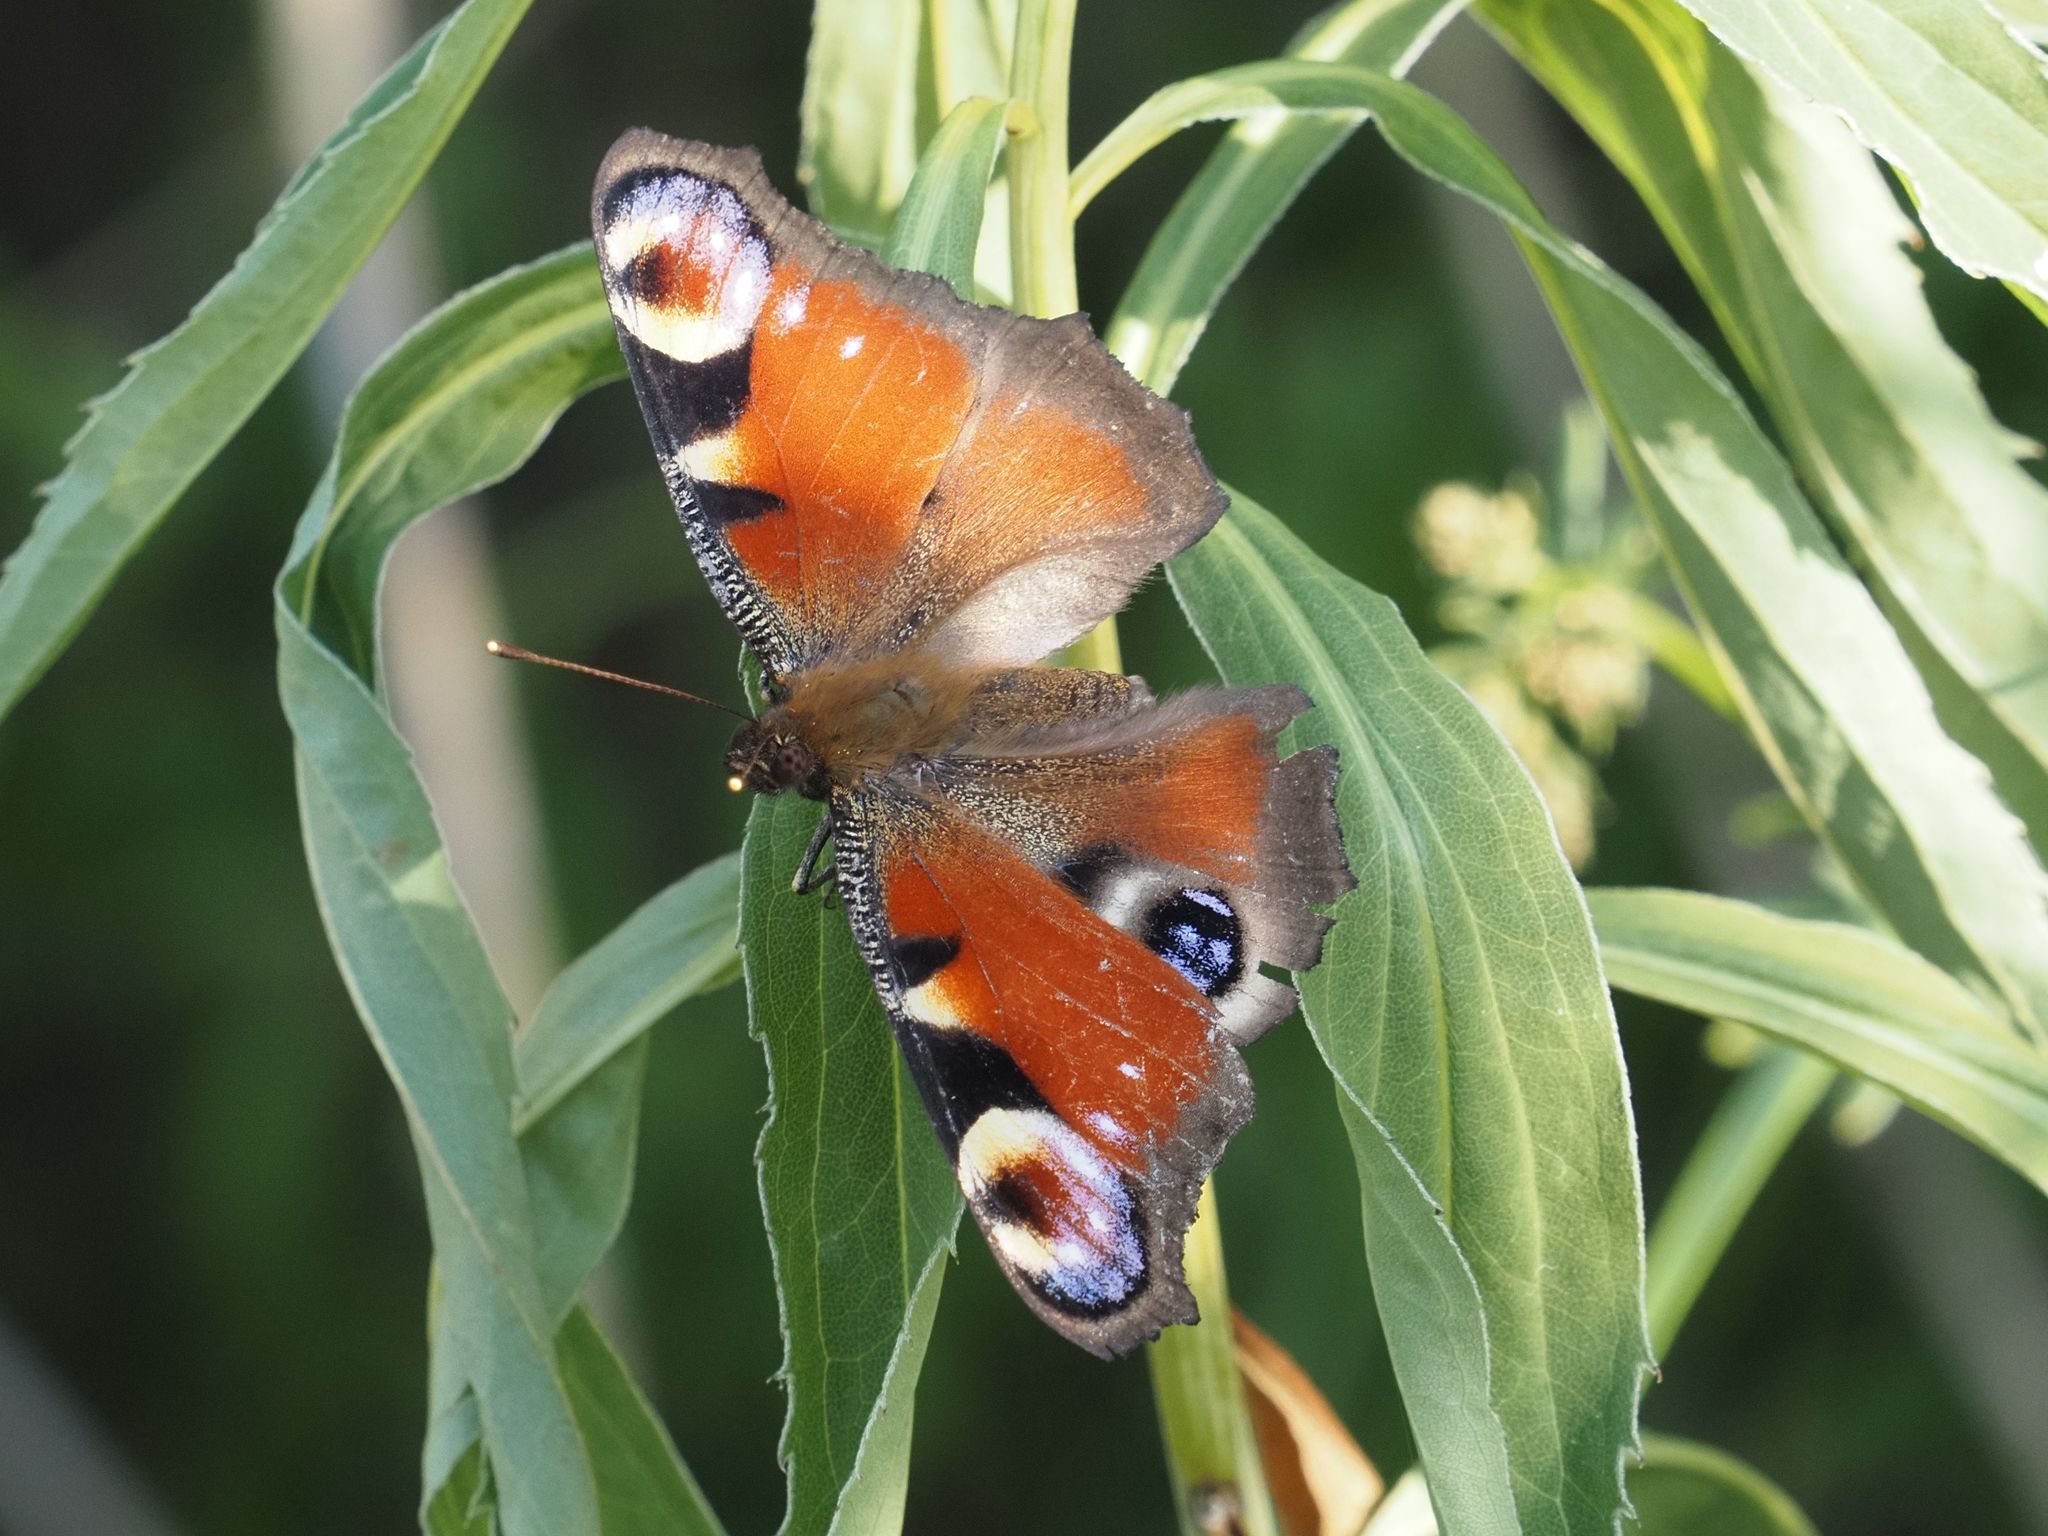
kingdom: Animalia
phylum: Arthropoda
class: Insecta
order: Lepidoptera
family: Nymphalidae
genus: Aglais
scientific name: Aglais io
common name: Peacock
